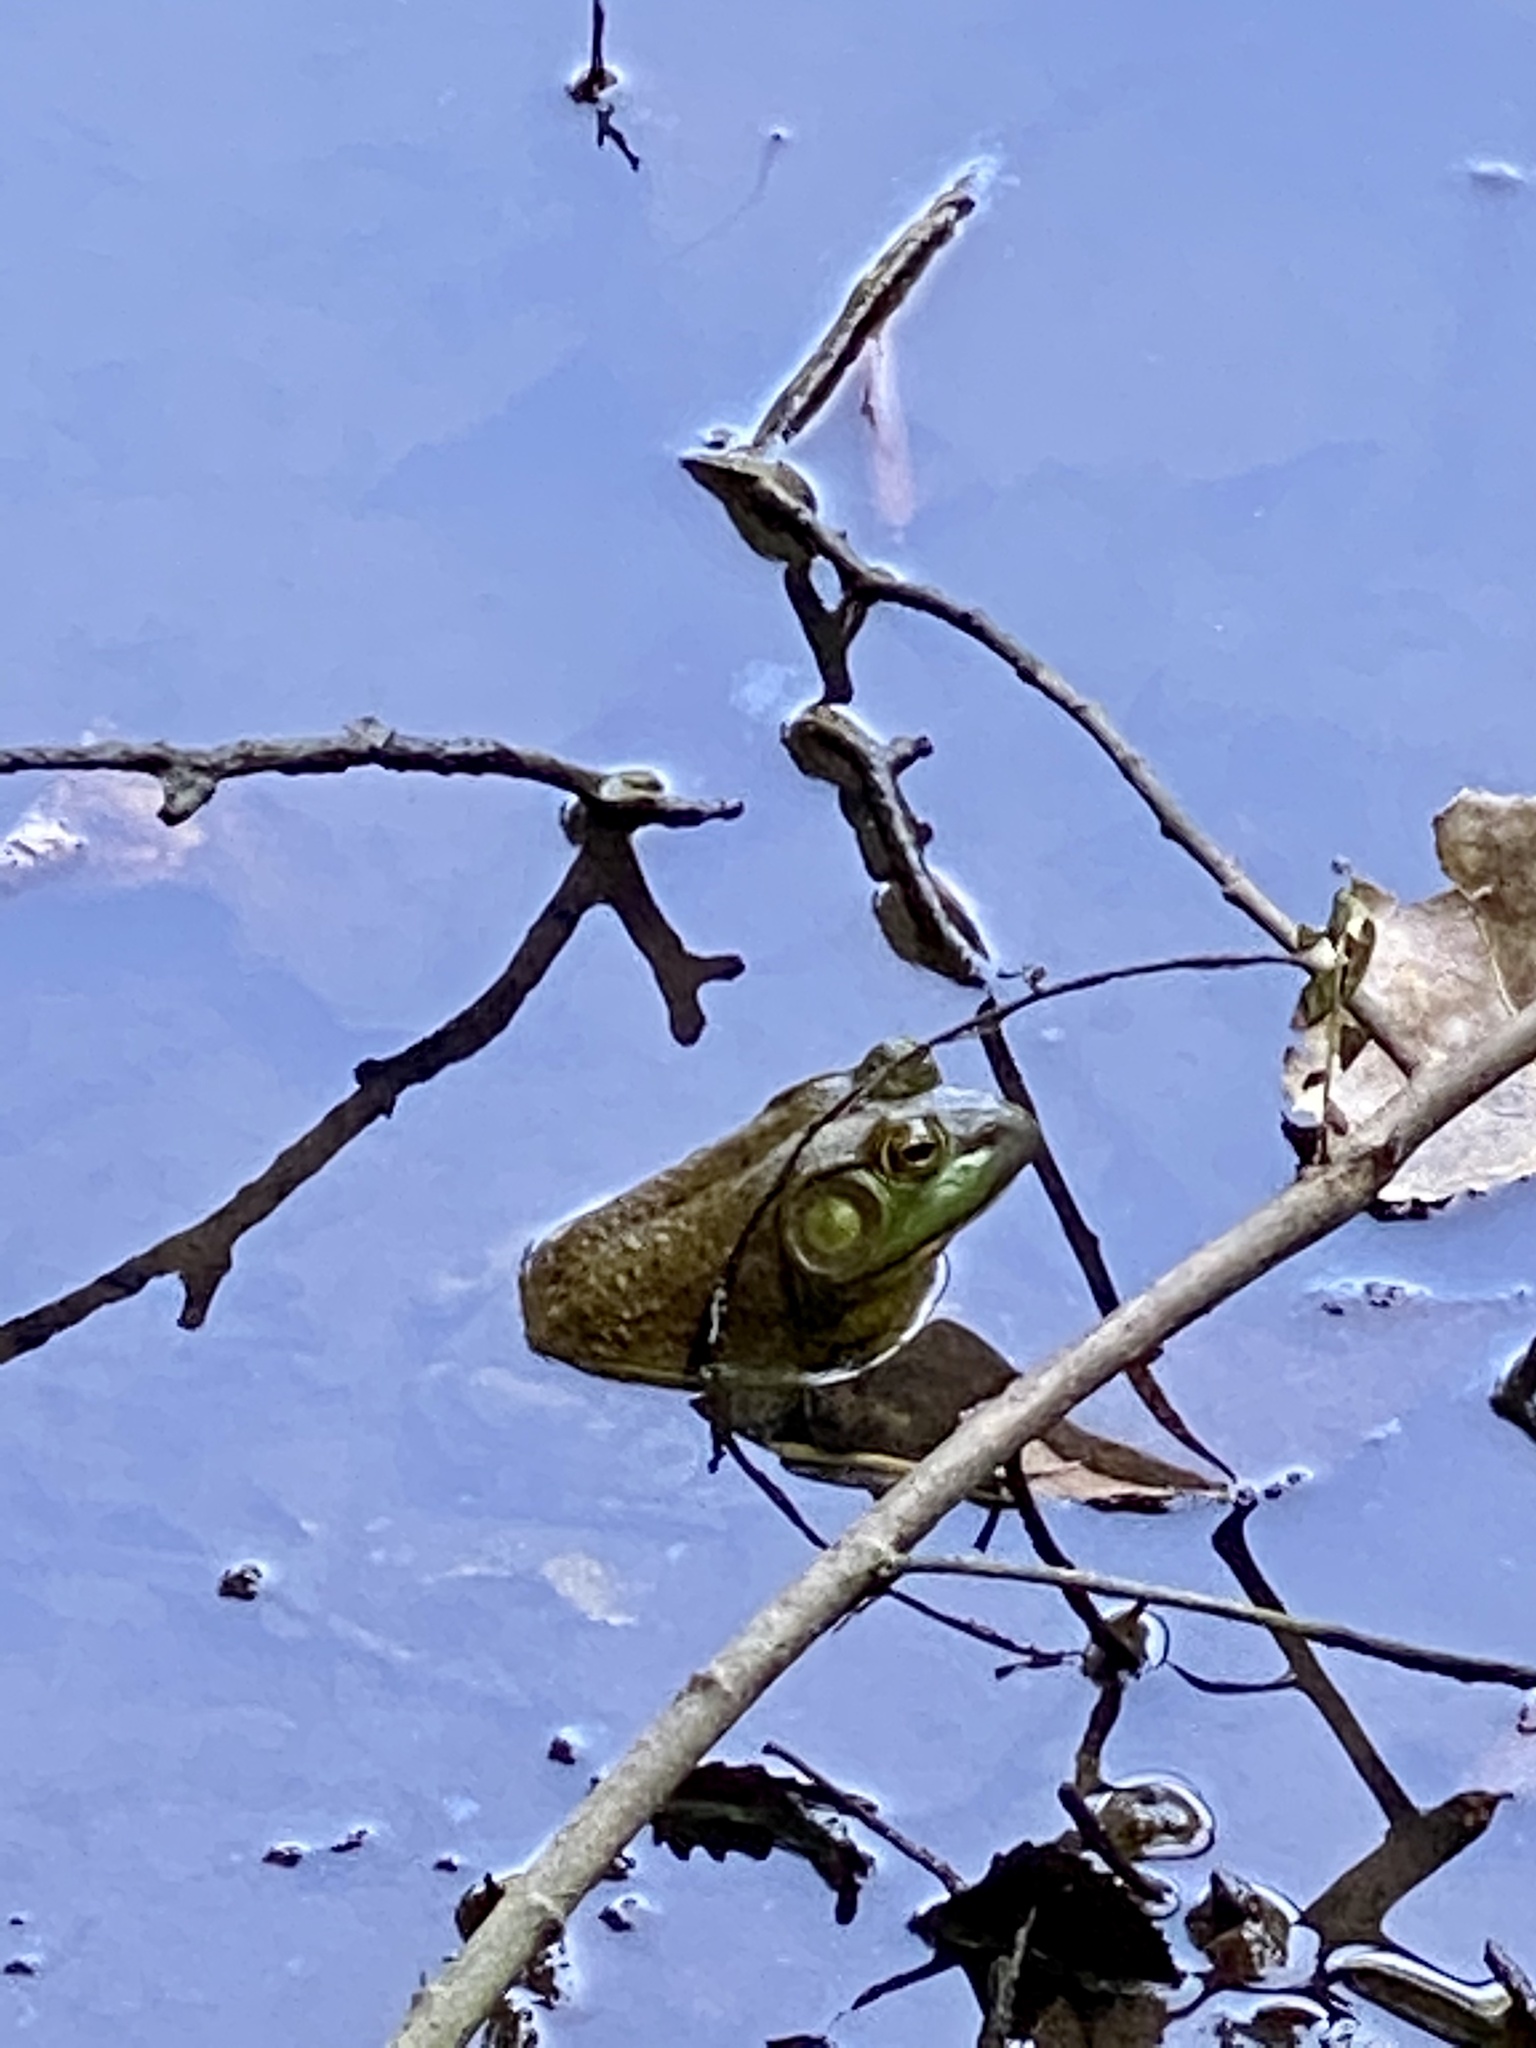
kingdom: Animalia
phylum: Chordata
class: Amphibia
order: Anura
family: Ranidae
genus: Lithobates
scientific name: Lithobates catesbeianus
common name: American bullfrog
